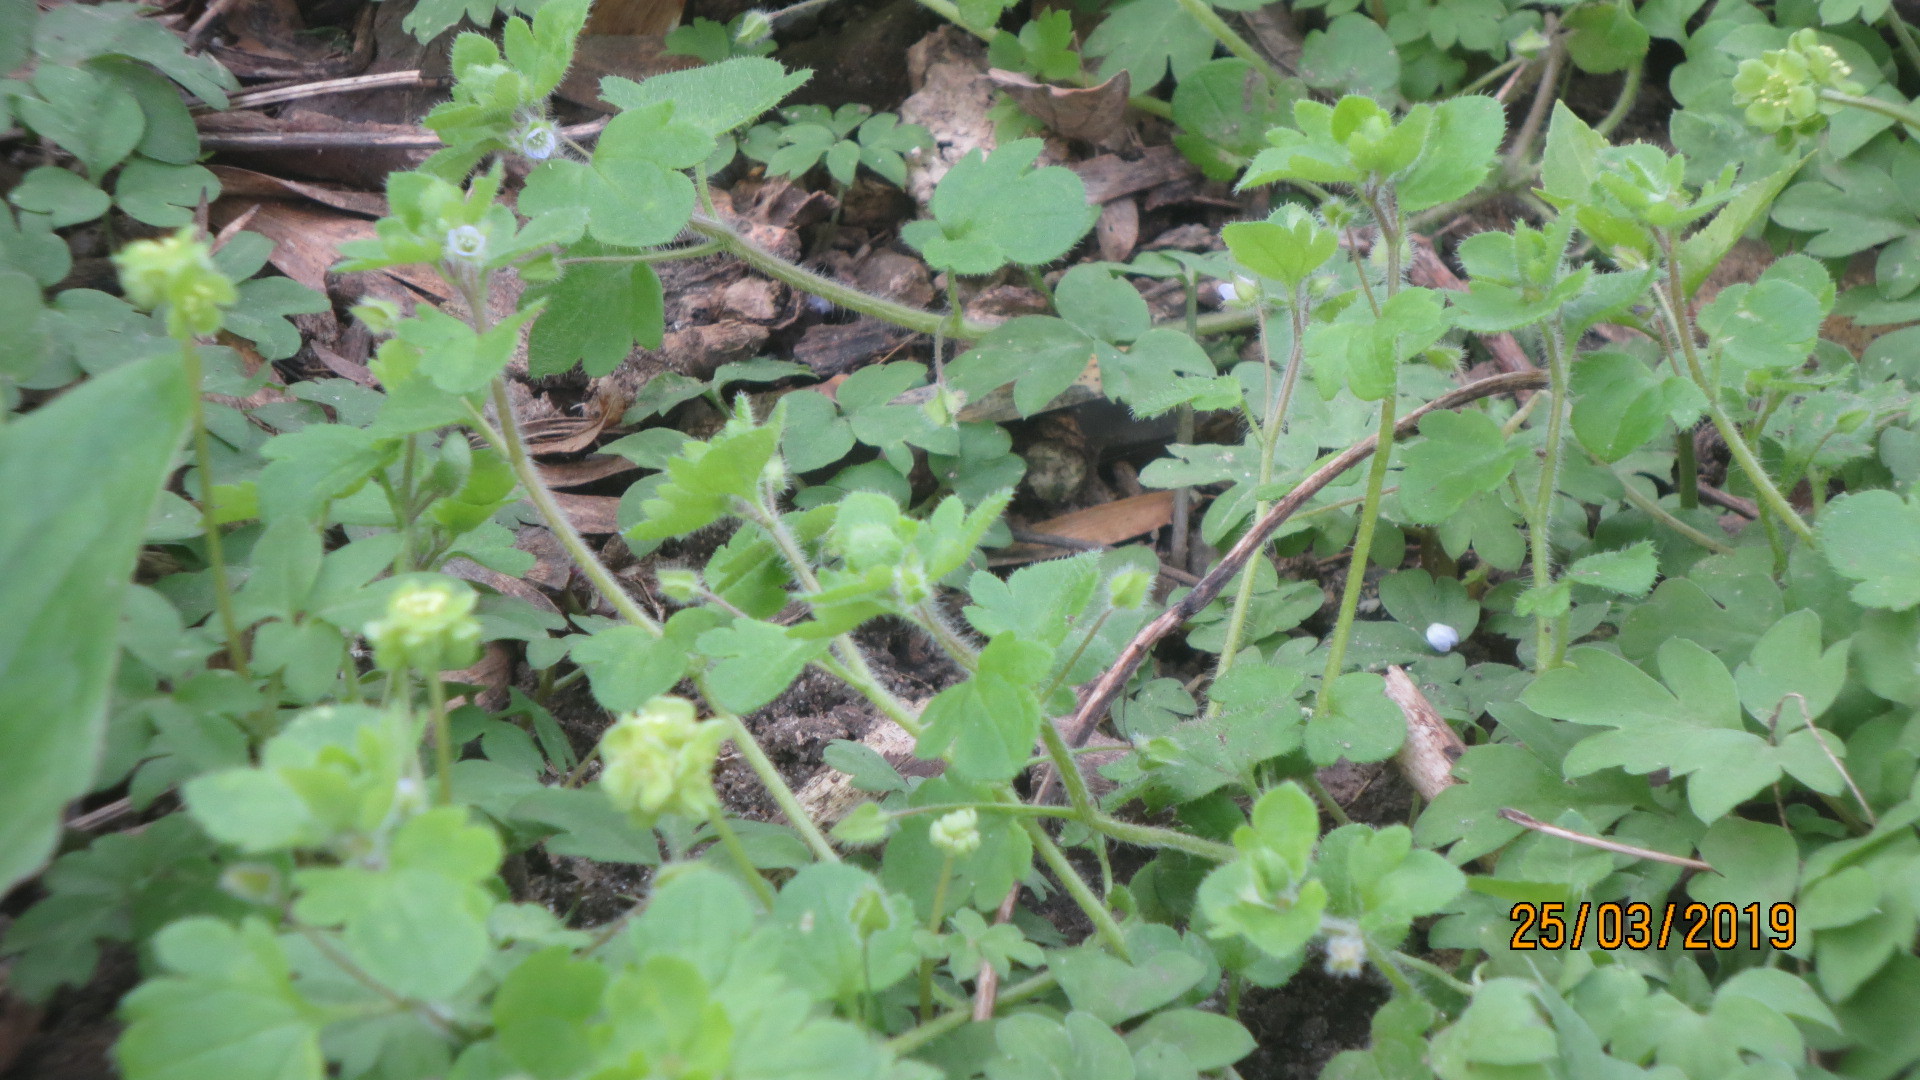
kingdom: Plantae
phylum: Tracheophyta
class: Magnoliopsida
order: Dipsacales
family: Viburnaceae
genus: Adoxa
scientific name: Adoxa moschatellina
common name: Moschatel
